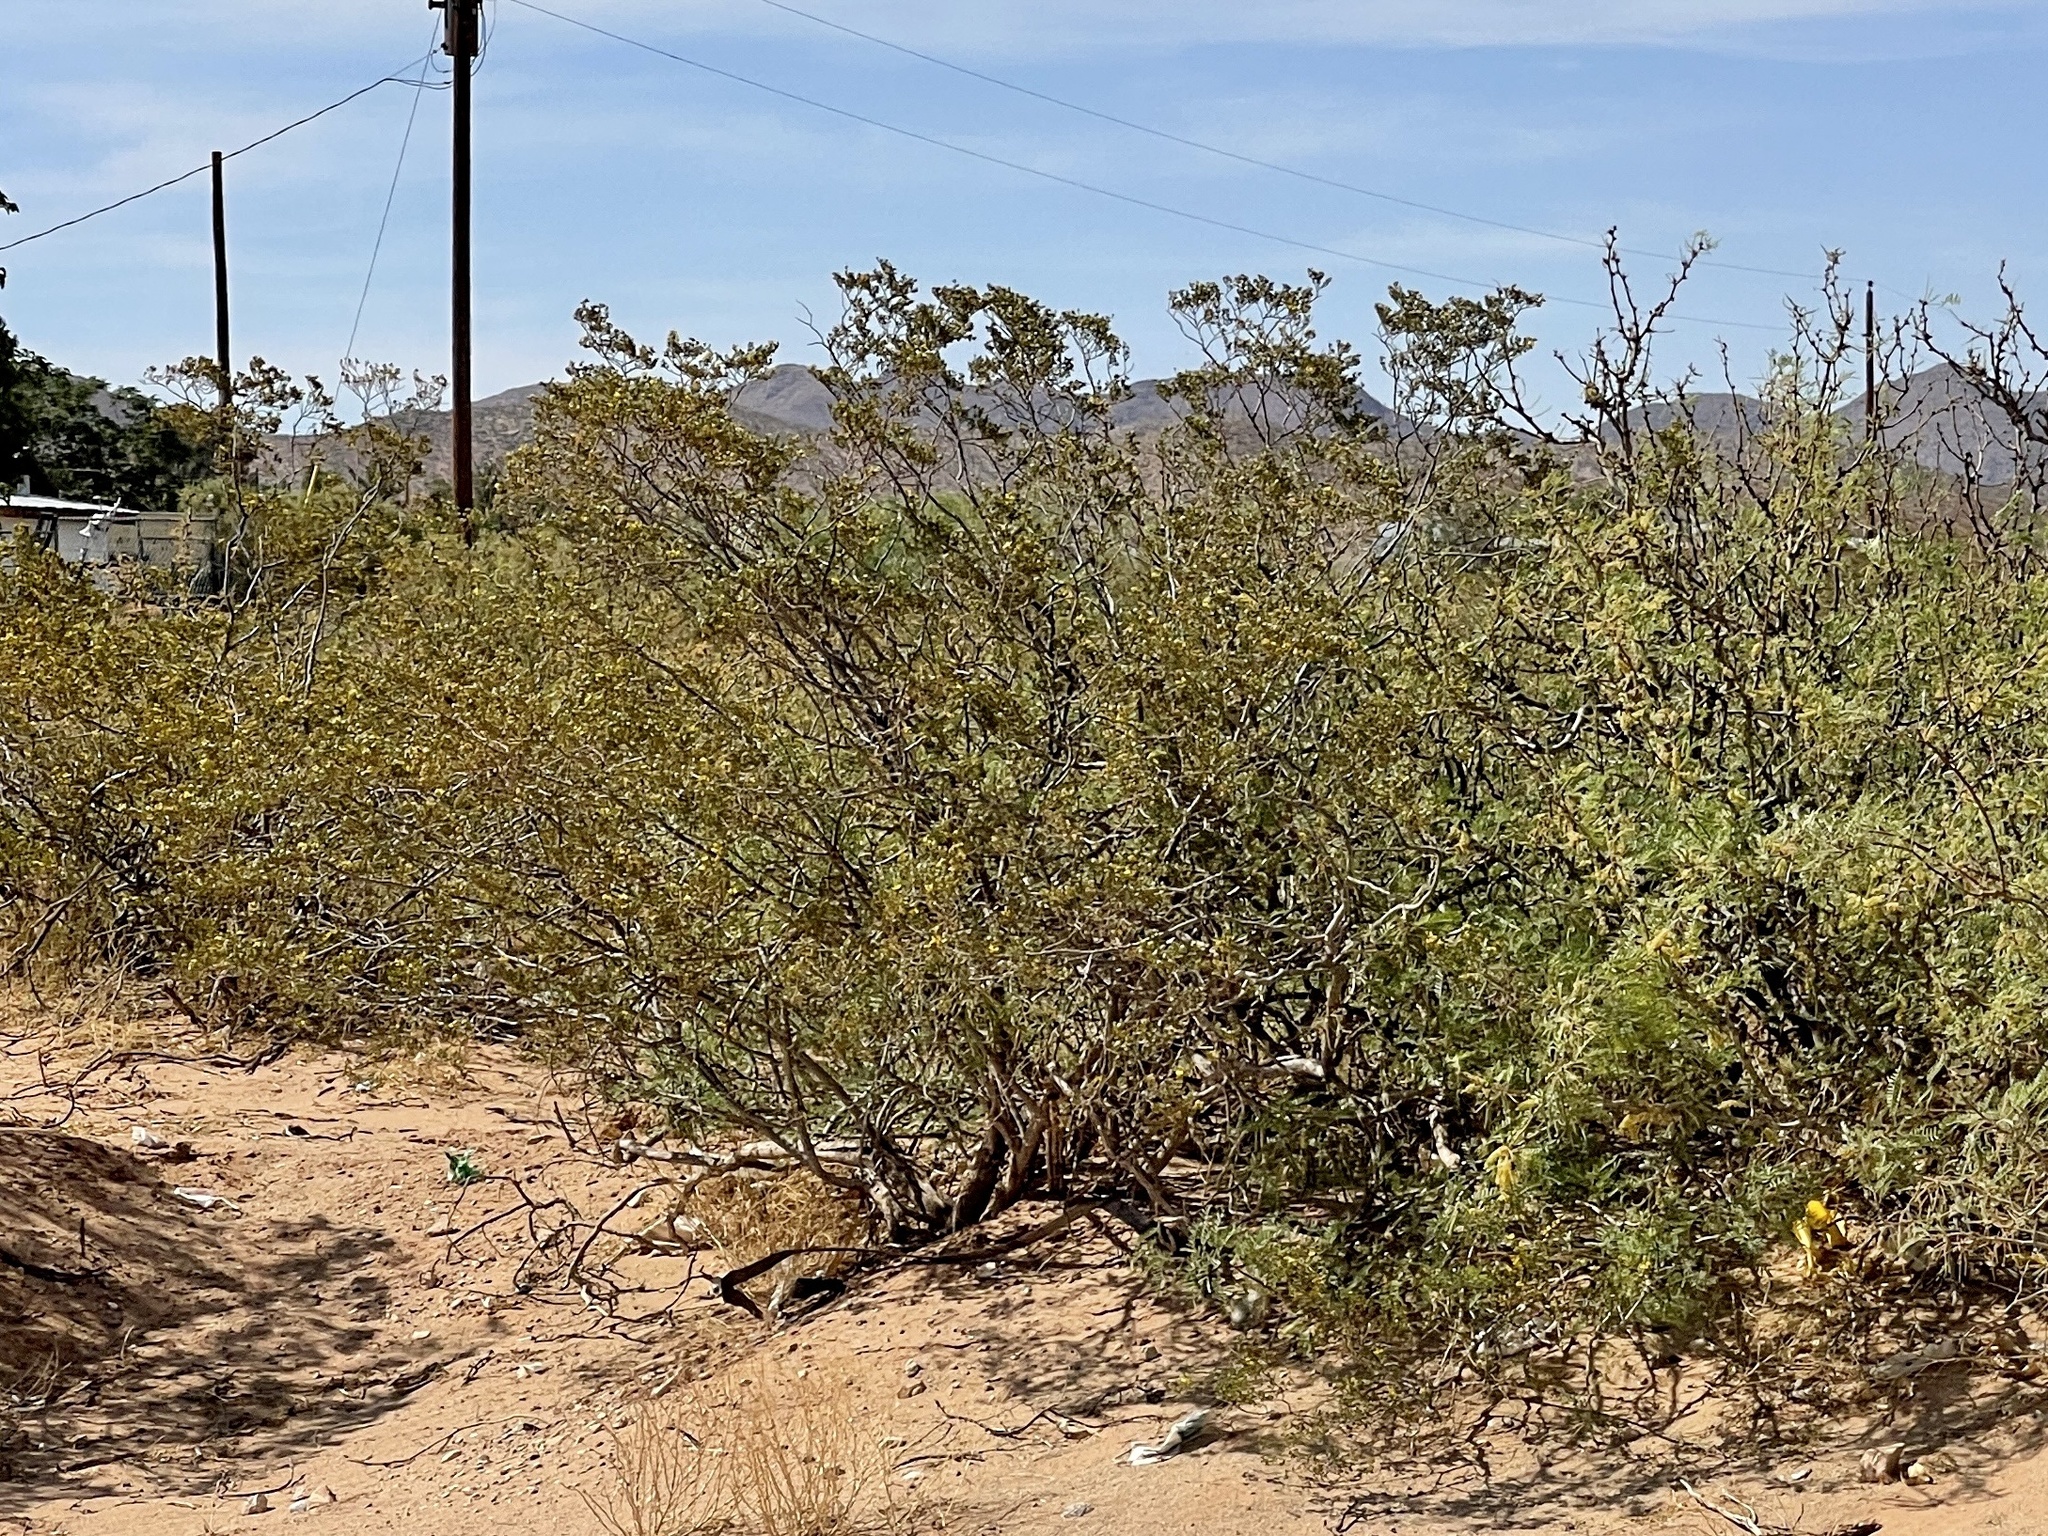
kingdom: Plantae
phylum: Tracheophyta
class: Magnoliopsida
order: Zygophyllales
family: Zygophyllaceae
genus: Larrea
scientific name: Larrea tridentata
